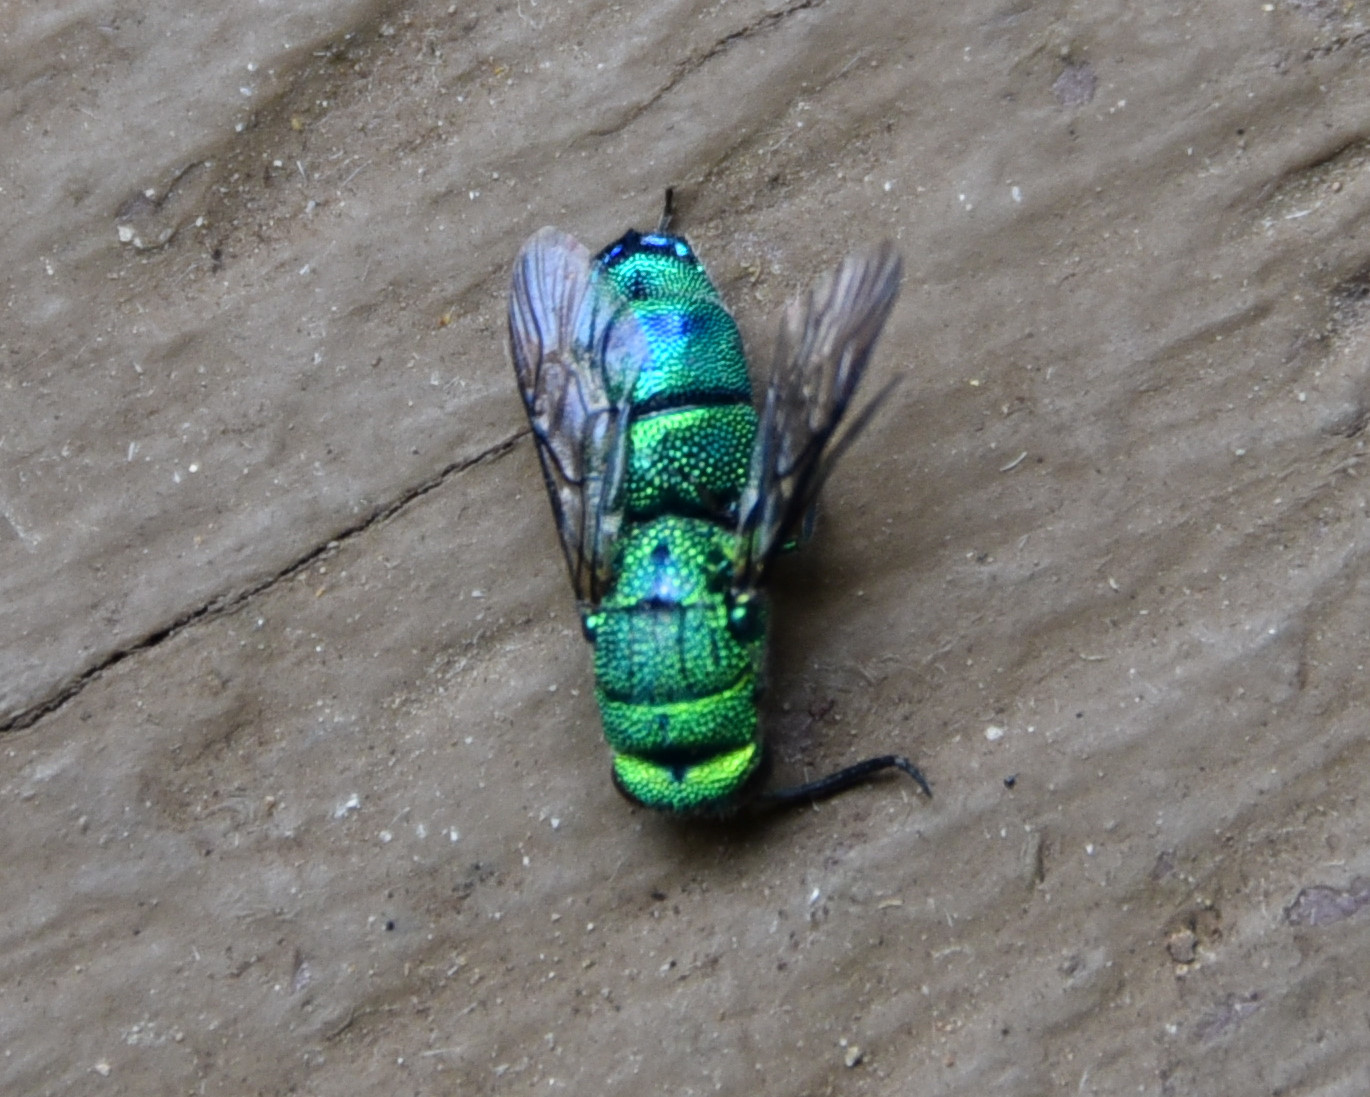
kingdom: Animalia
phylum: Arthropoda
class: Insecta
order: Hymenoptera
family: Chrysididae
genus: Caenochrysis
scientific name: Caenochrysis
